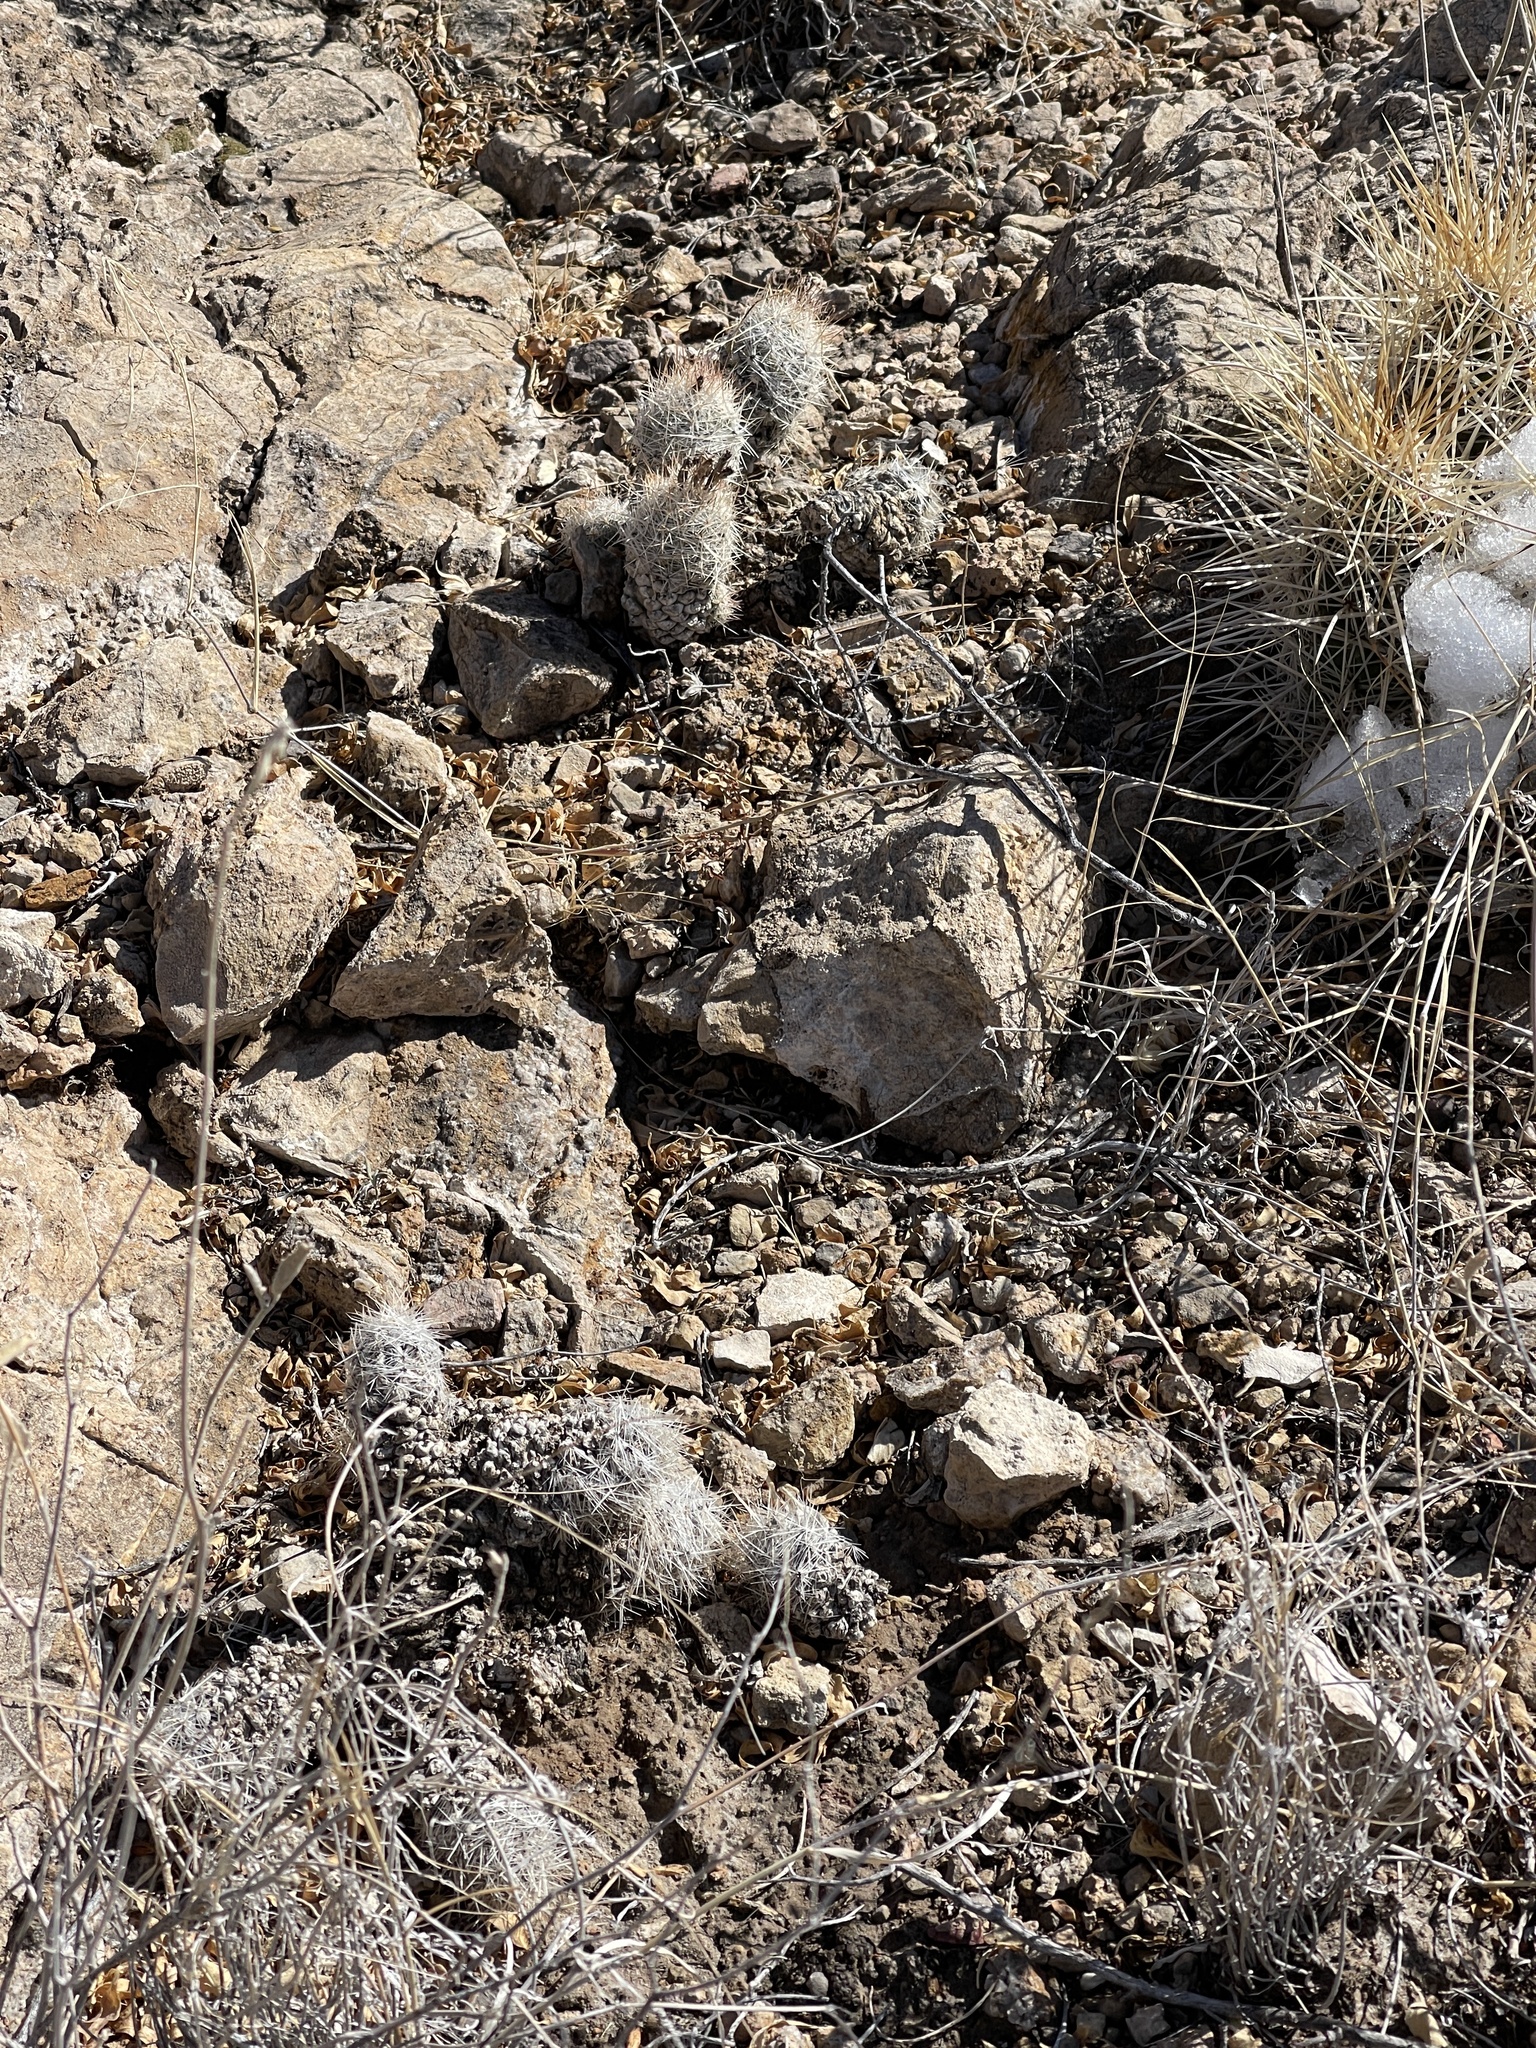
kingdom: Plantae
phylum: Tracheophyta
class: Magnoliopsida
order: Caryophyllales
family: Cactaceae
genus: Pelecyphora
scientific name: Pelecyphora tuberculosa
